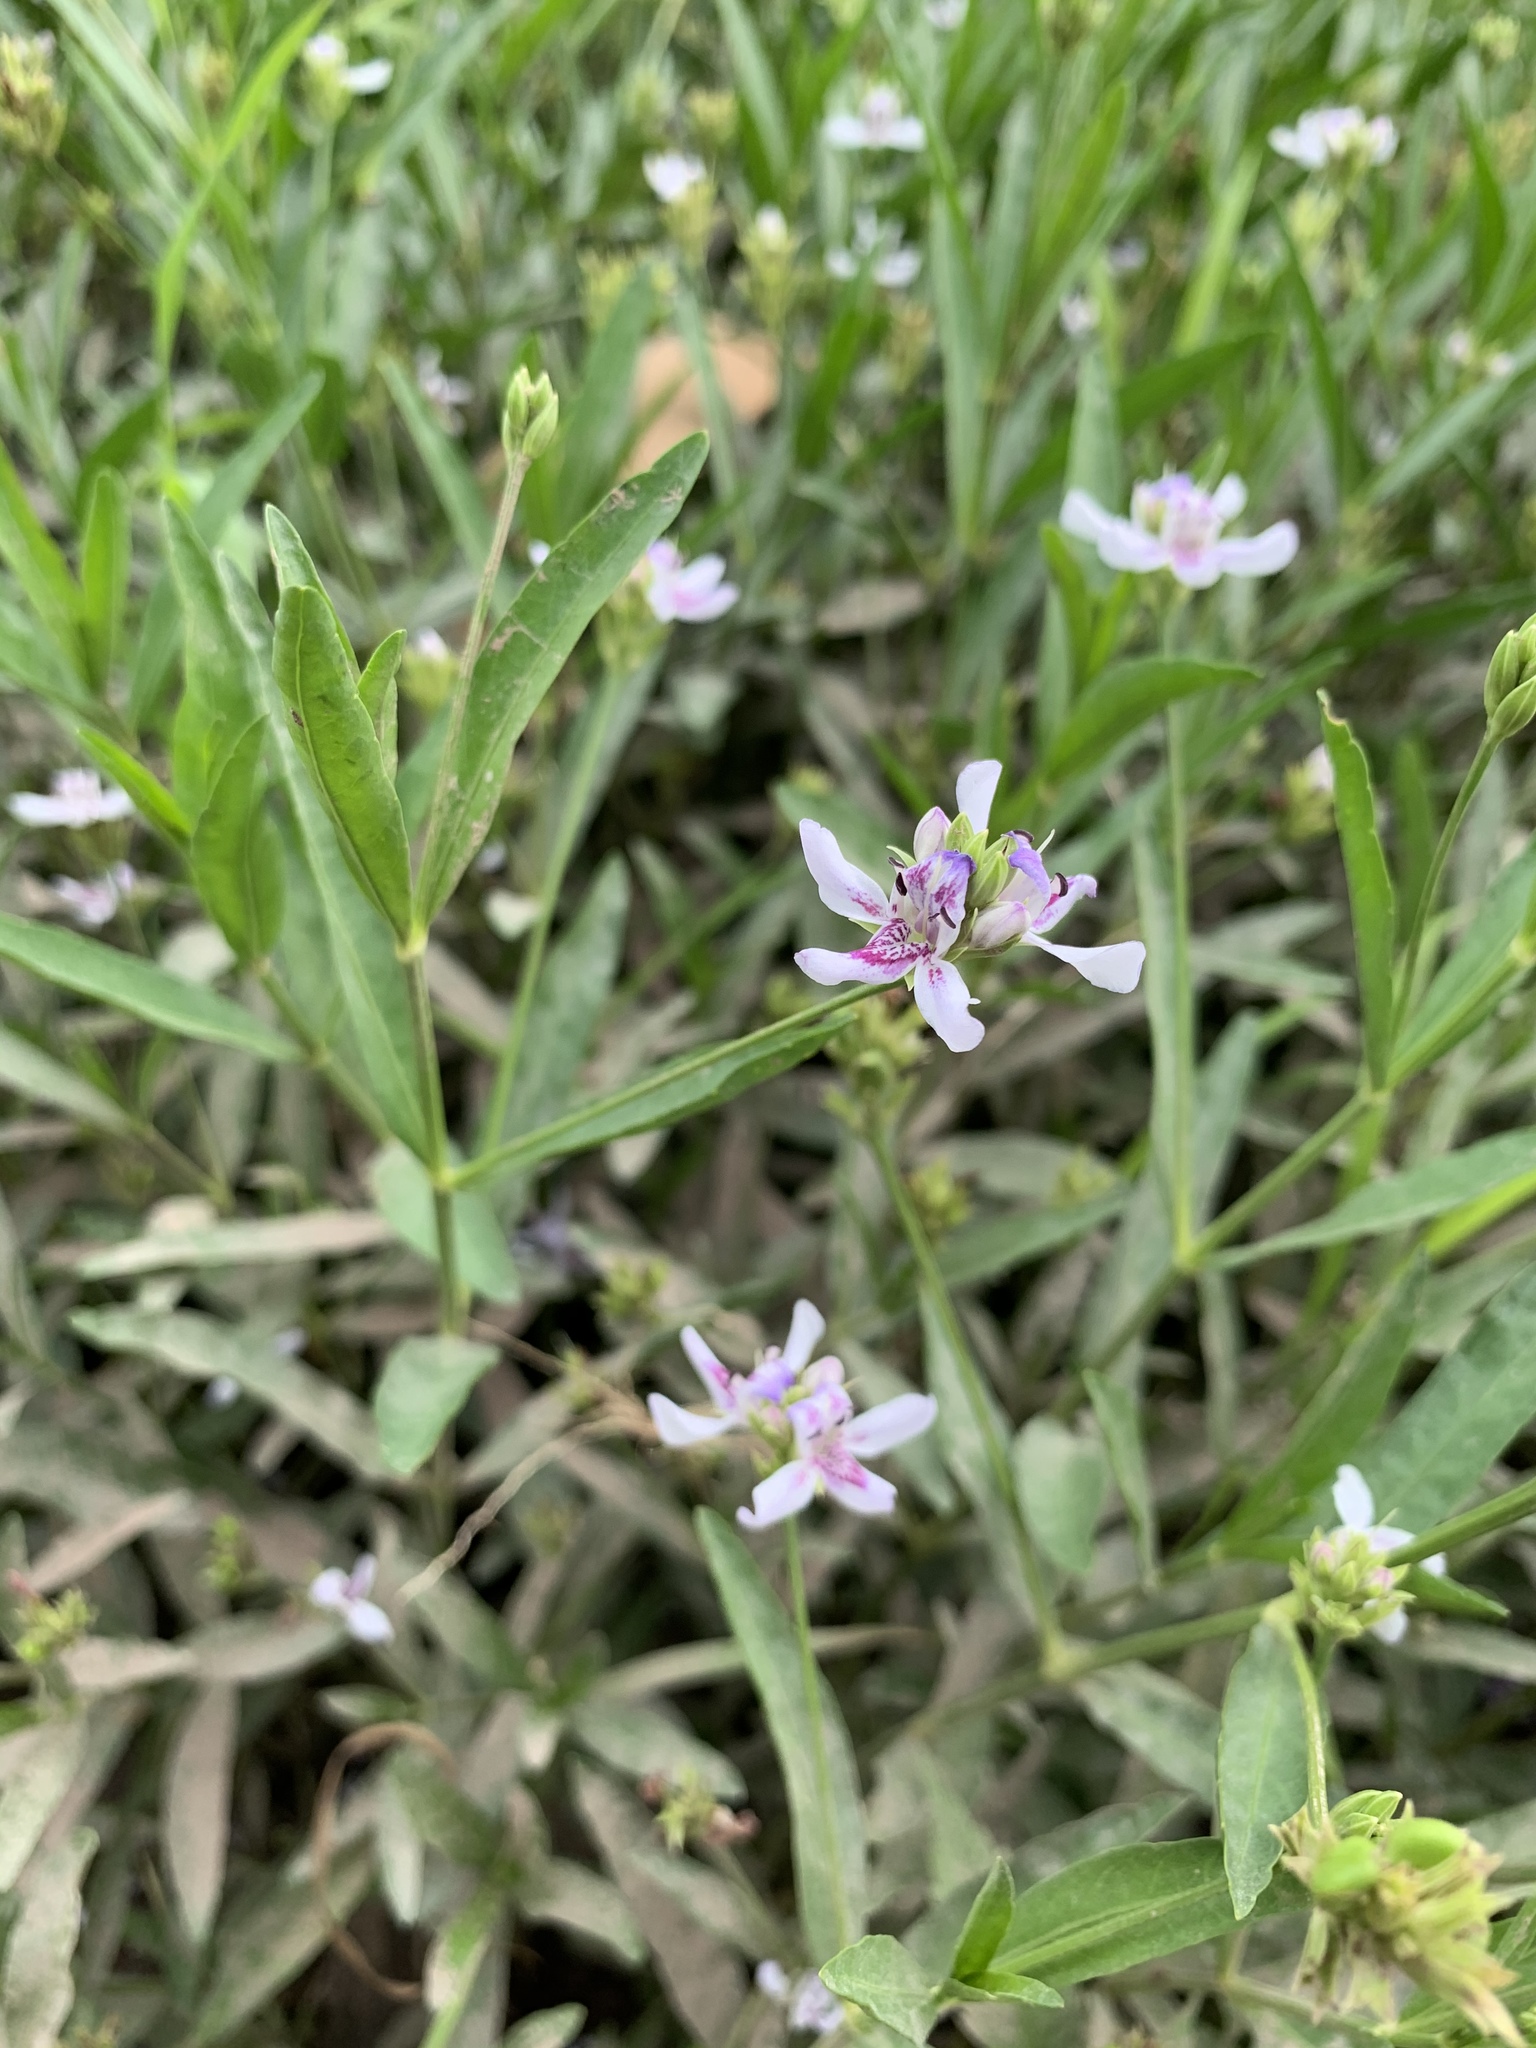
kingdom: Plantae
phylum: Tracheophyta
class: Magnoliopsida
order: Lamiales
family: Acanthaceae
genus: Dianthera
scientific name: Dianthera americana
